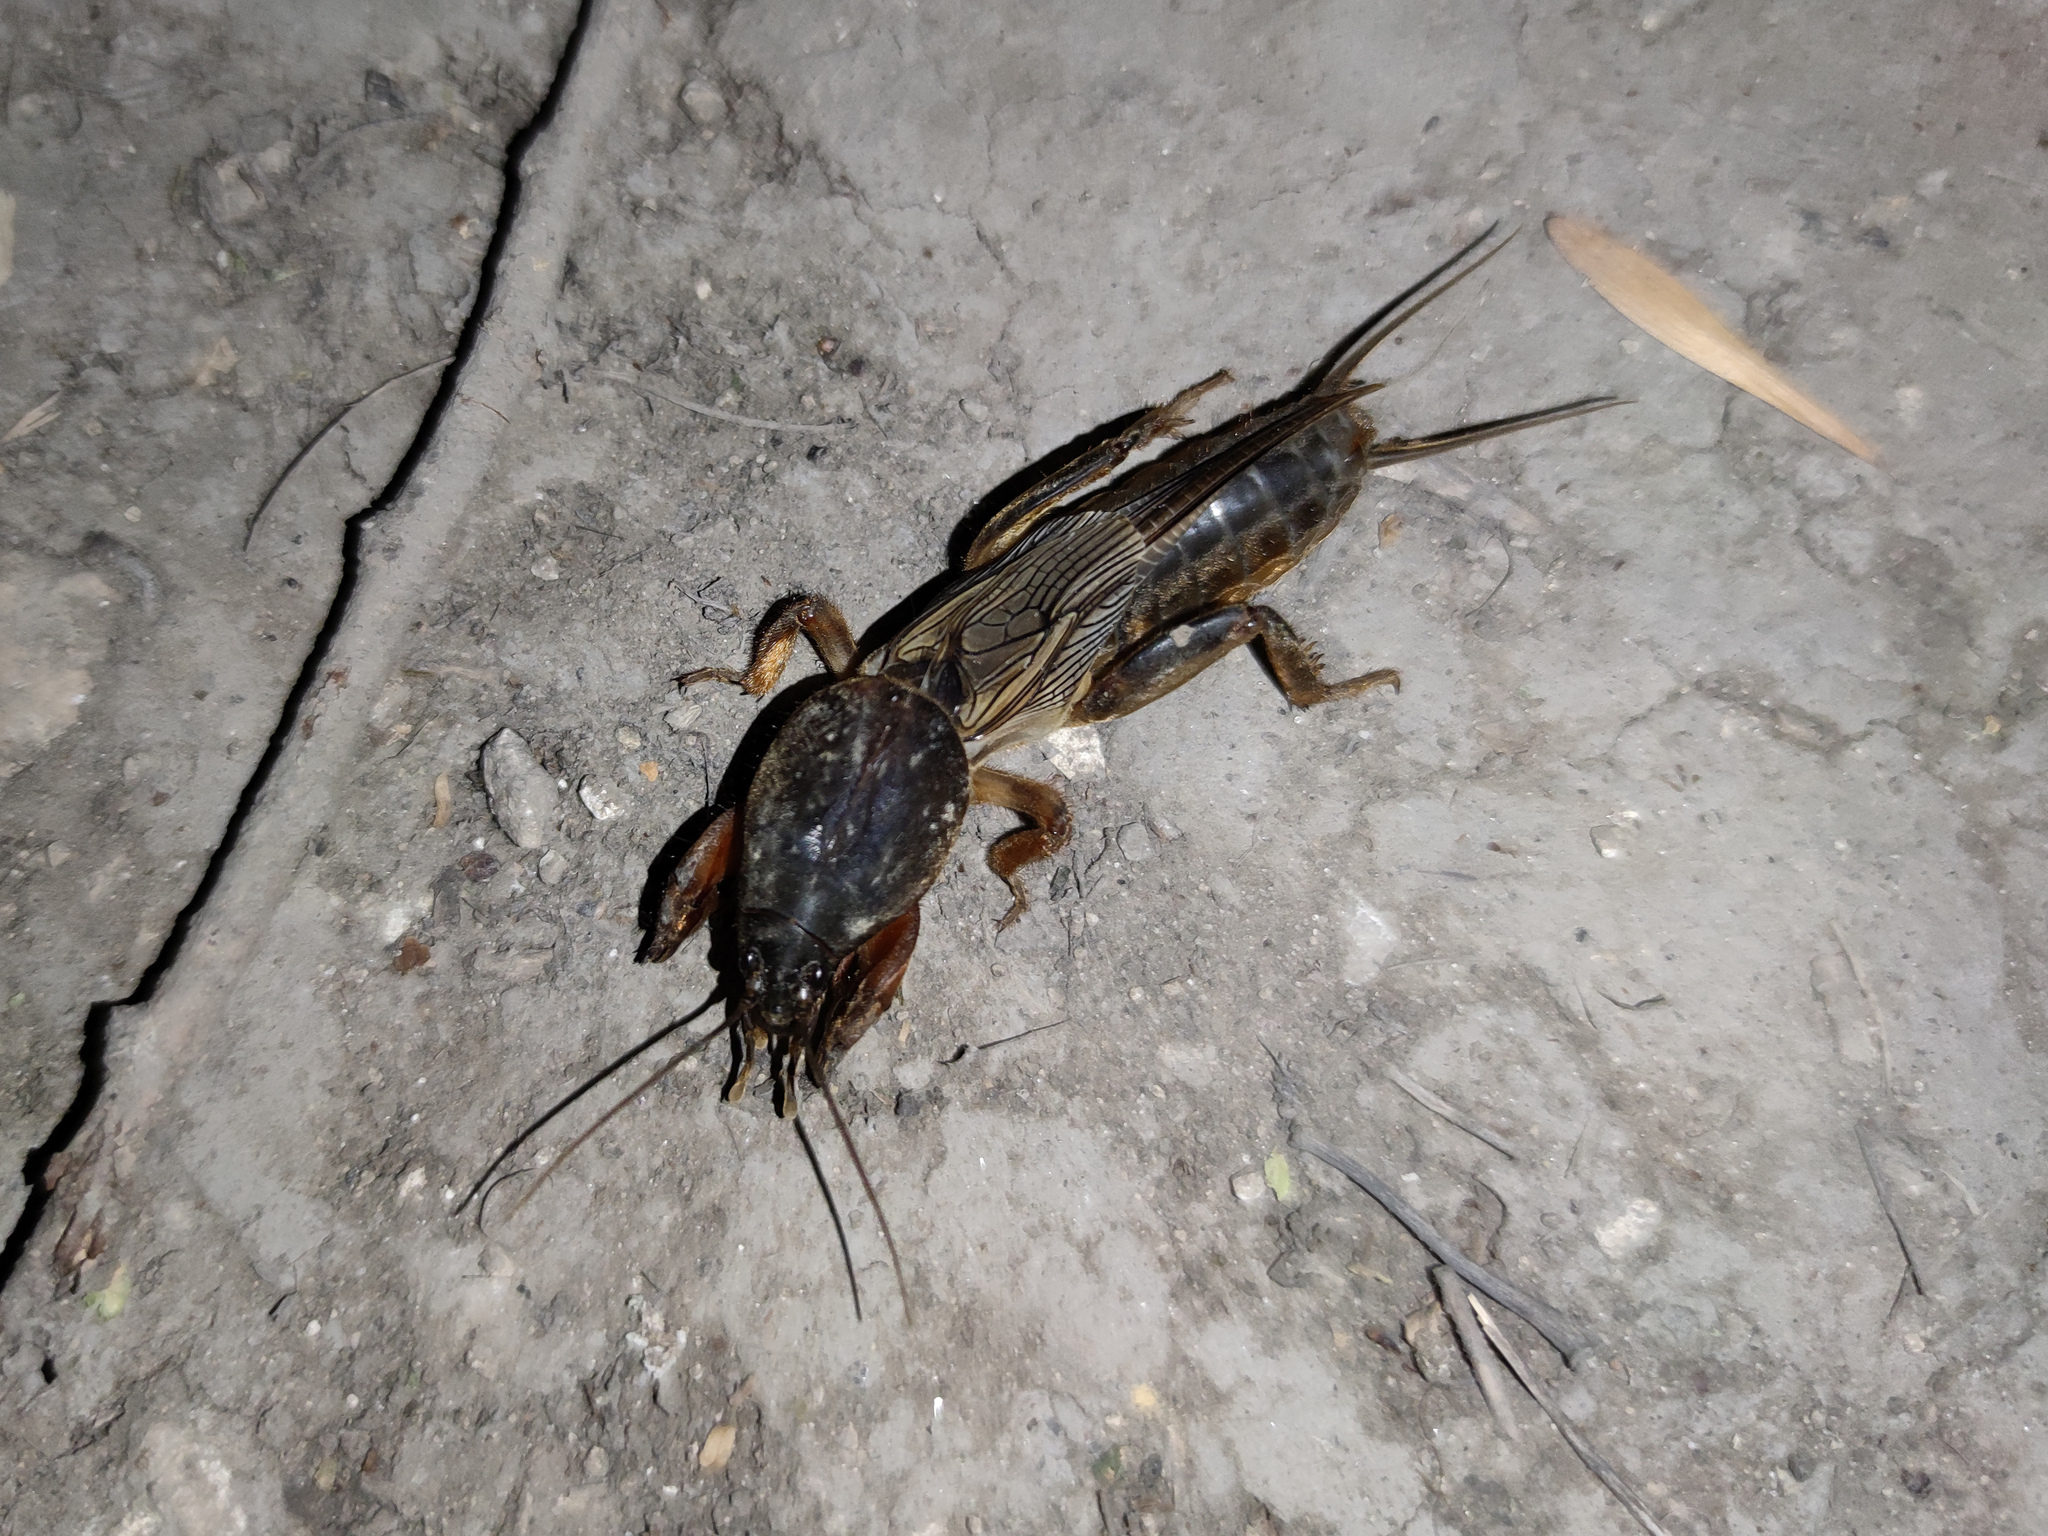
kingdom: Animalia
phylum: Arthropoda
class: Insecta
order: Orthoptera
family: Gryllotalpidae
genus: Gryllotalpa
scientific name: Gryllotalpa gryllotalpa
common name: European mole cricket
